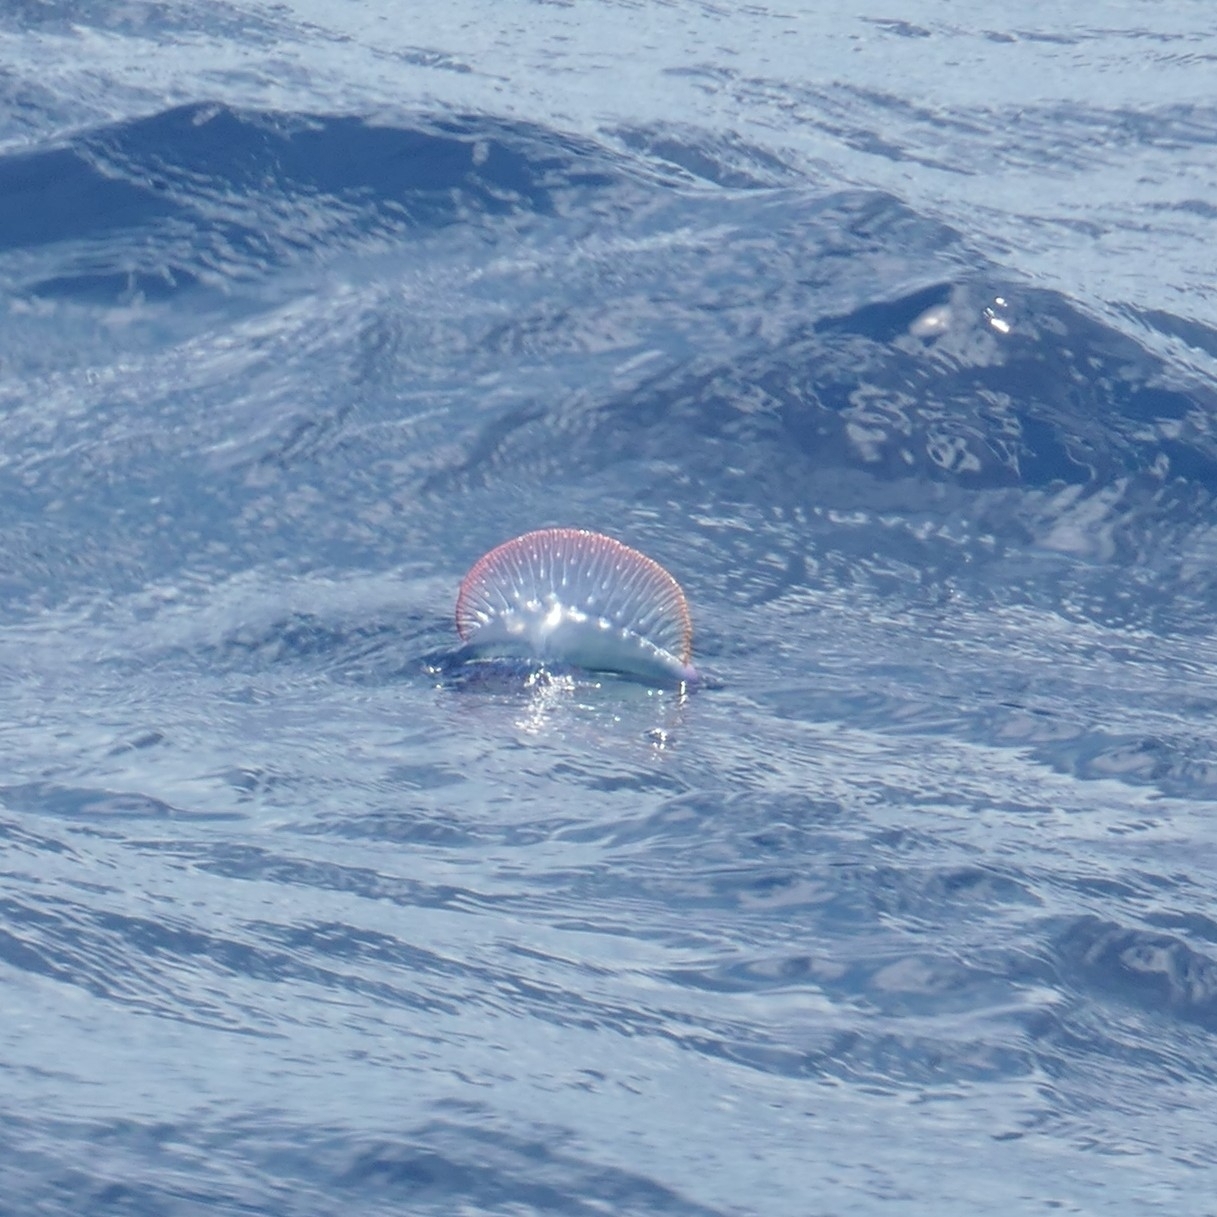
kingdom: Animalia
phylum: Cnidaria
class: Hydrozoa
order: Siphonophorae
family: Physaliidae
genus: Physalia
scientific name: Physalia physalis
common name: Portuguese man-of-war
